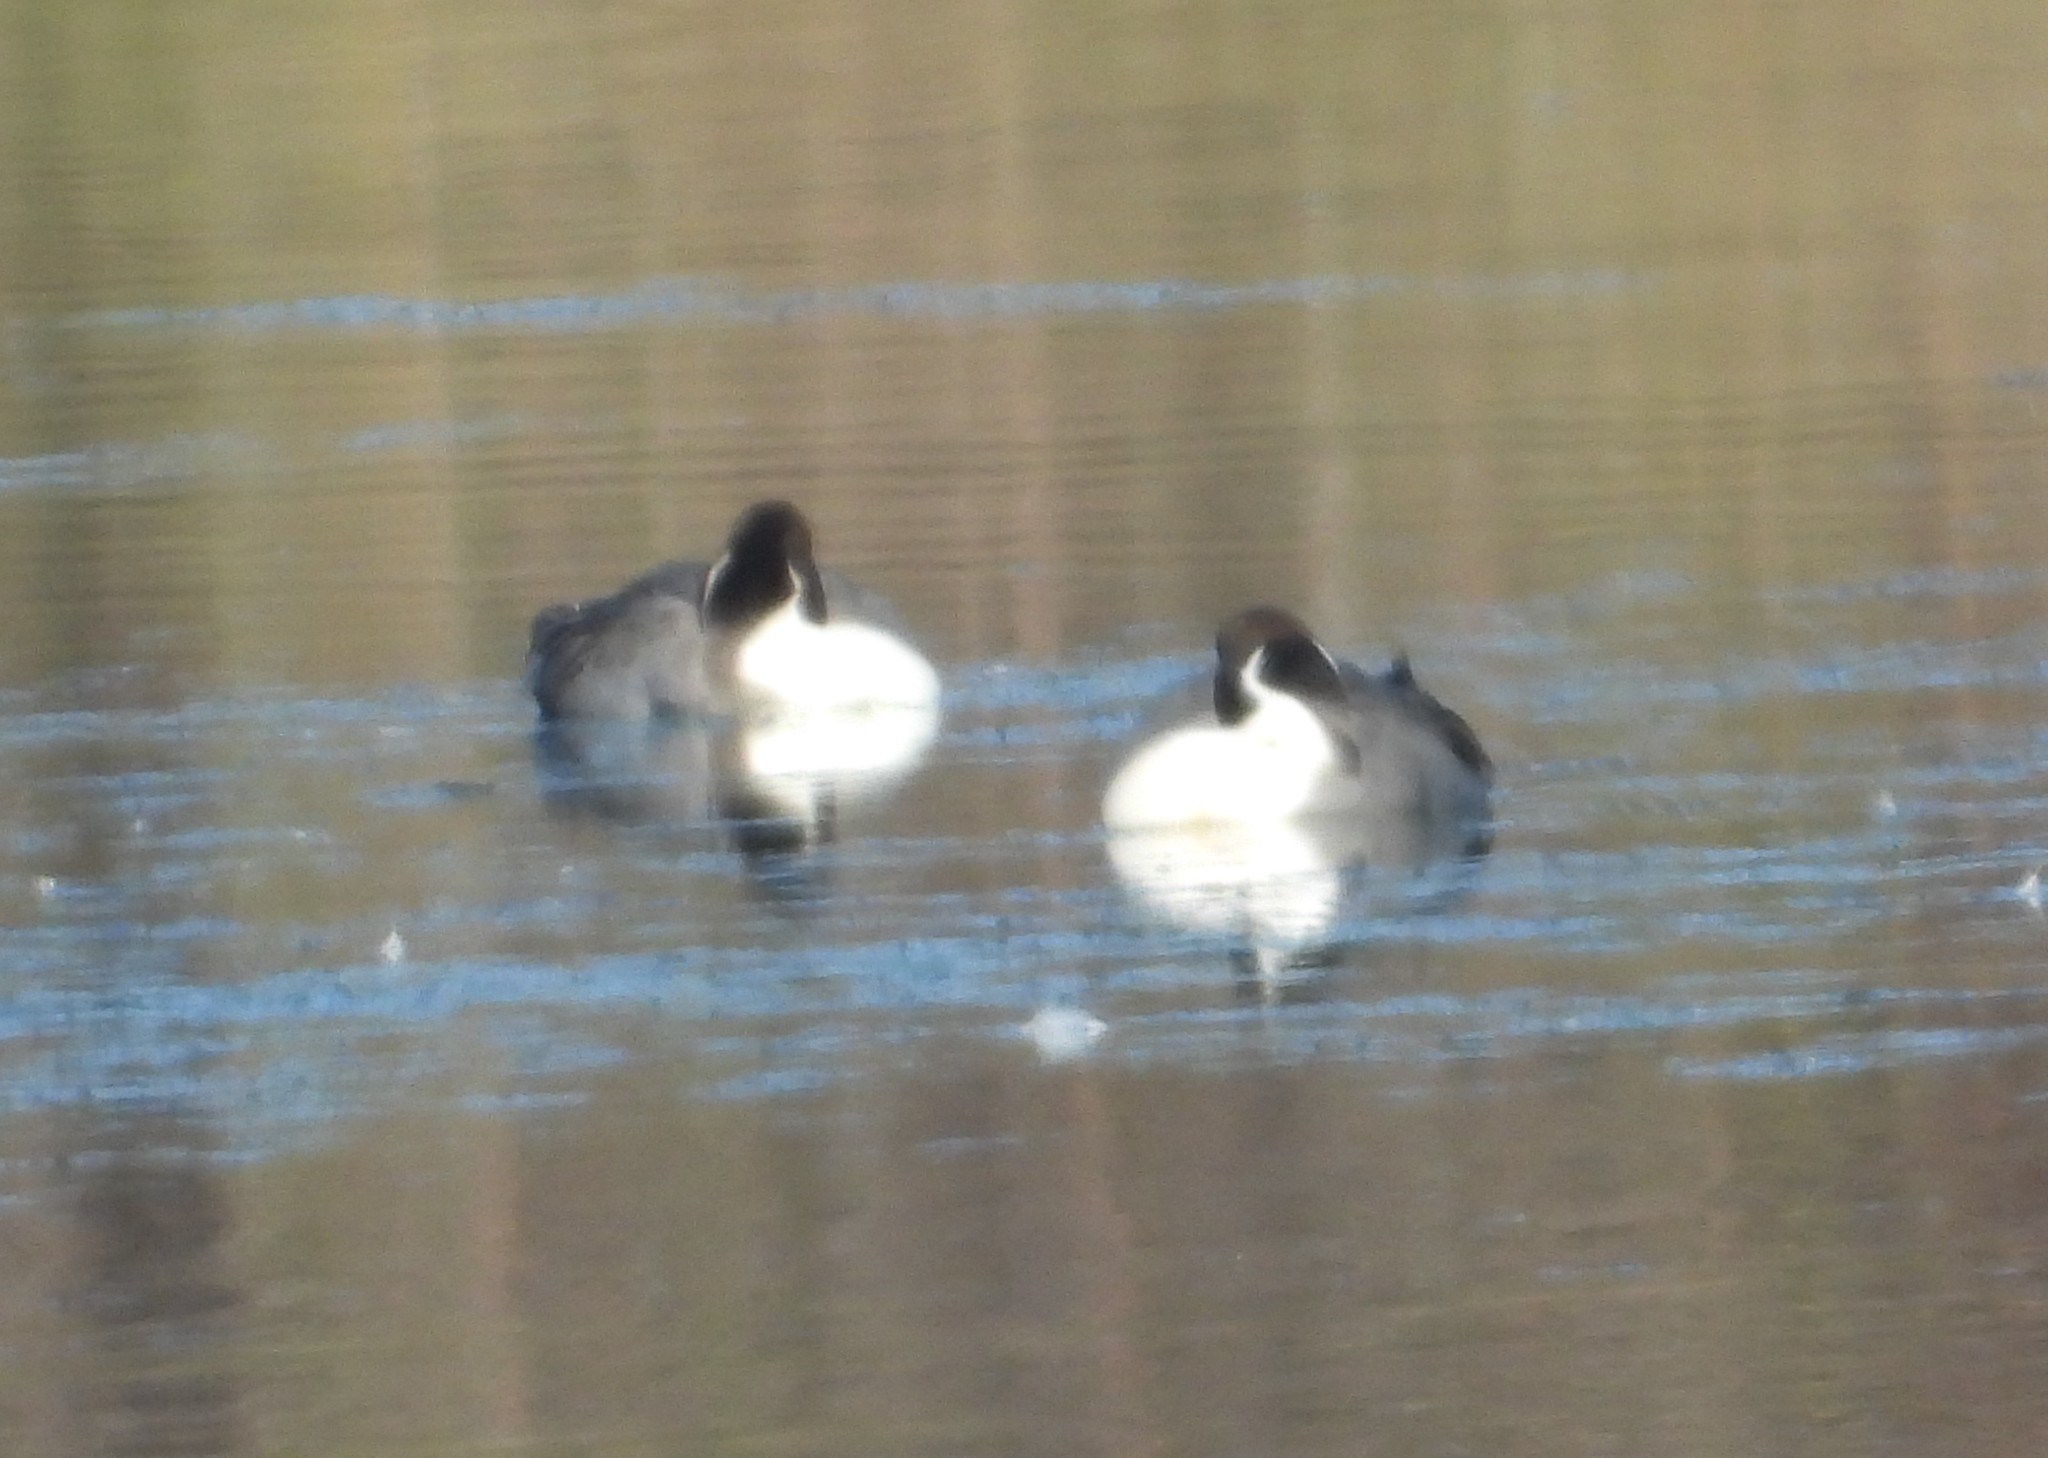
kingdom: Animalia
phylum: Chordata
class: Aves
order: Anseriformes
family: Anatidae
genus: Anas
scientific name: Anas acuta
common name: Northern pintail
